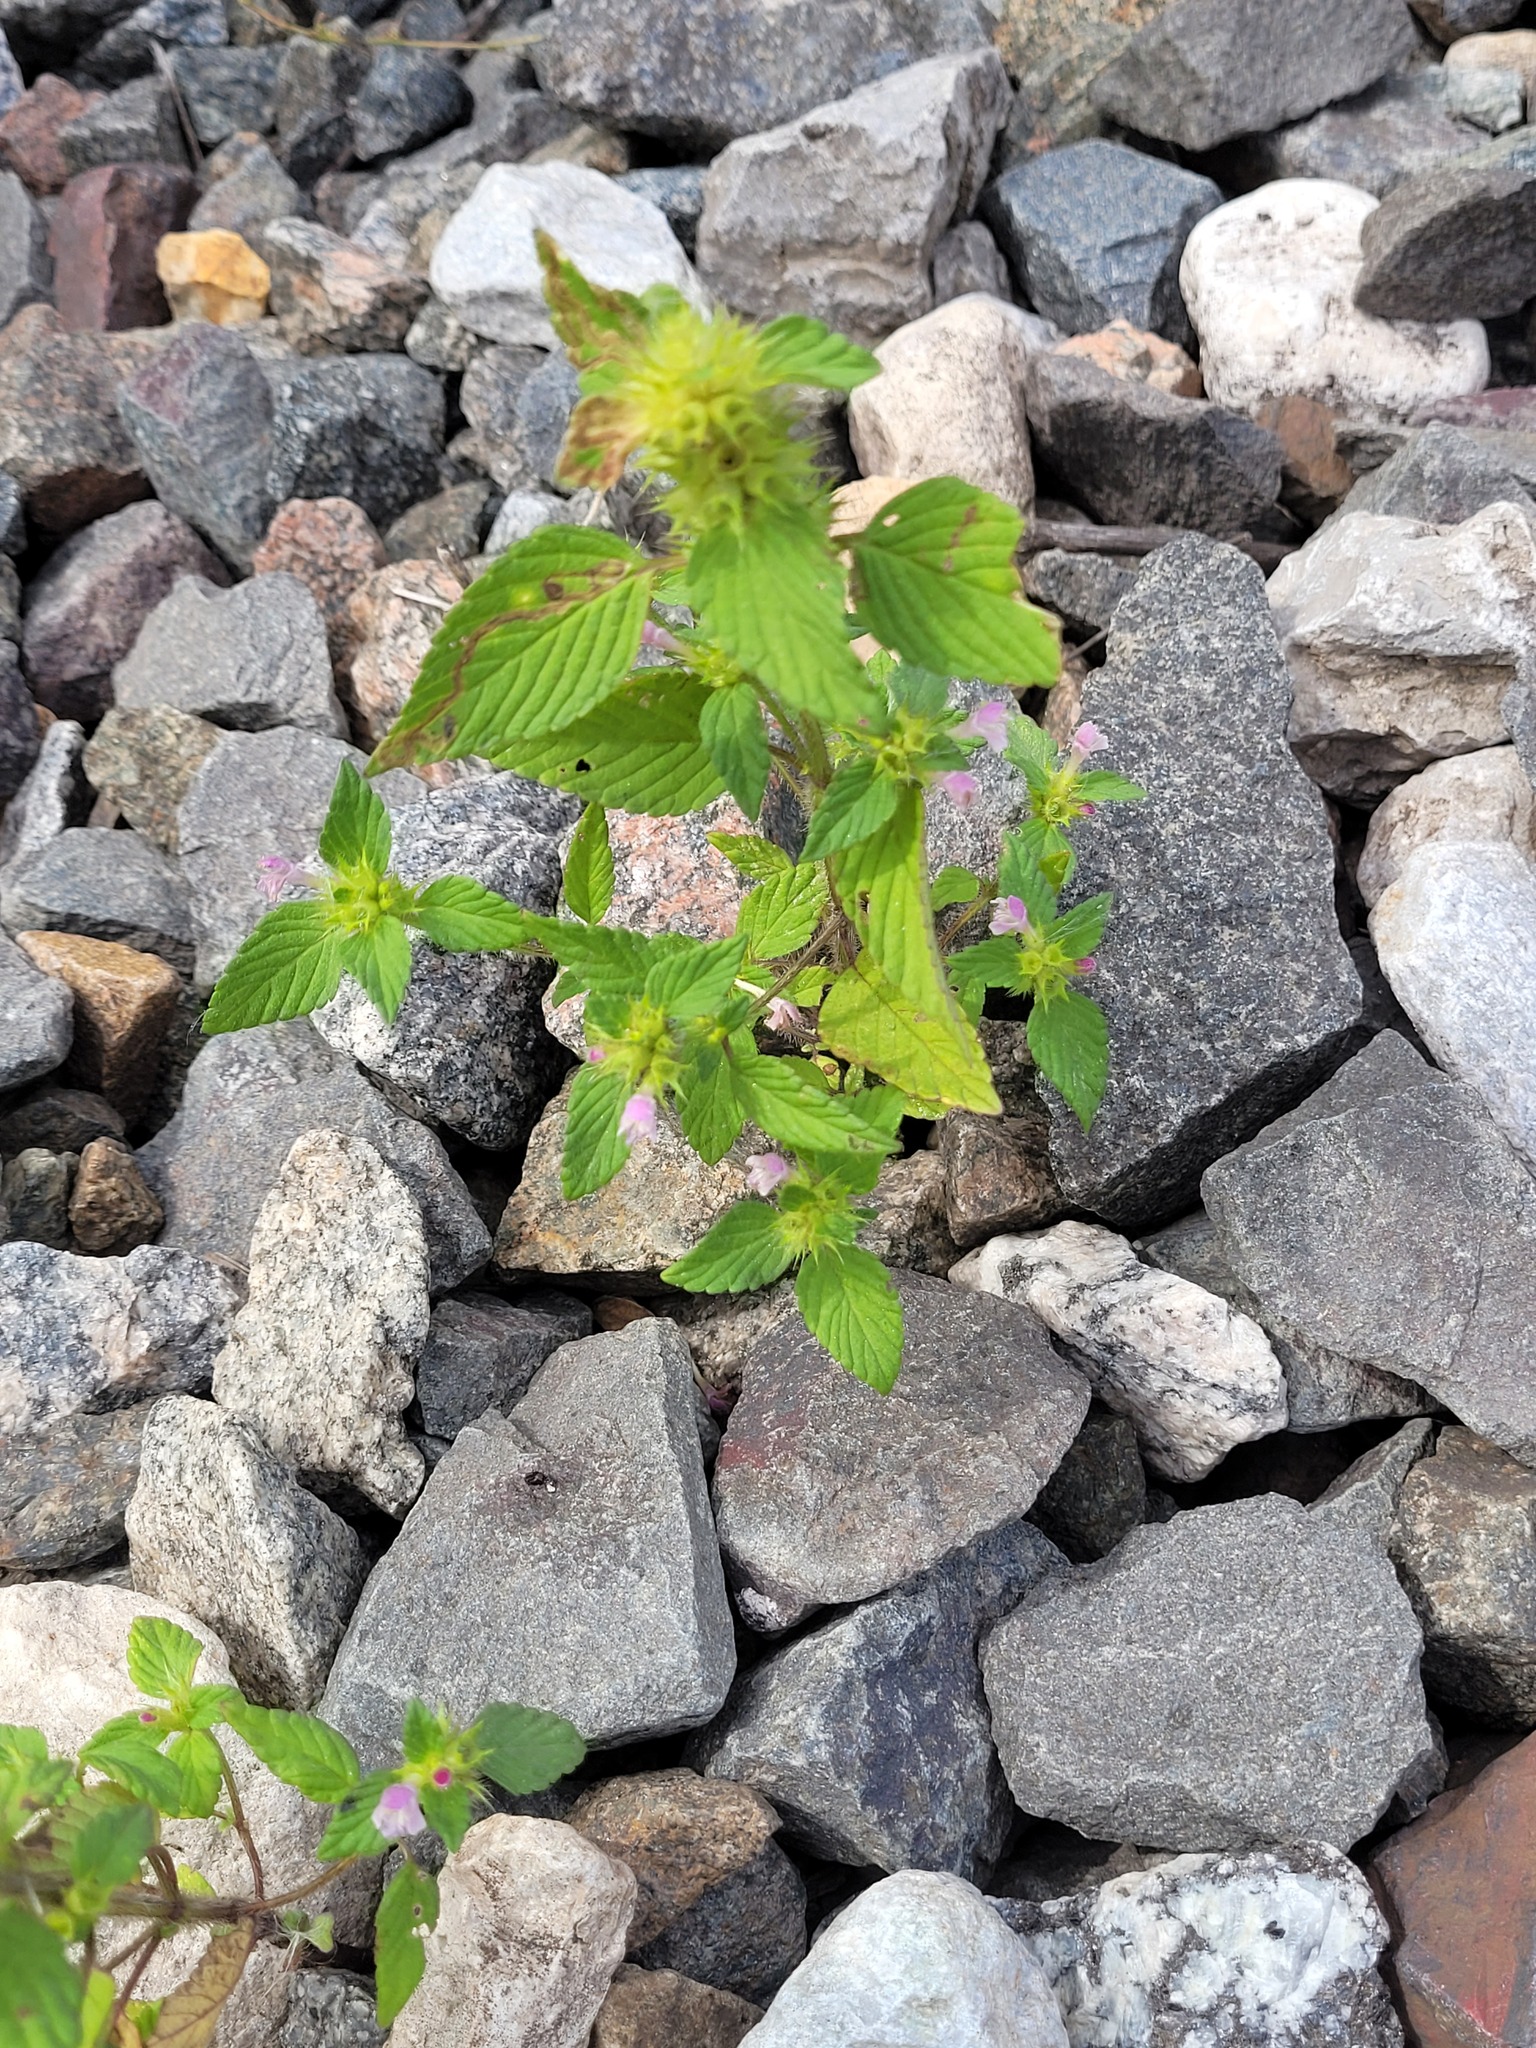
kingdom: Plantae
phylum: Tracheophyta
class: Magnoliopsida
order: Lamiales
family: Lamiaceae
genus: Galeopsis
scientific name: Galeopsis bifida
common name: Bifid hemp-nettle
